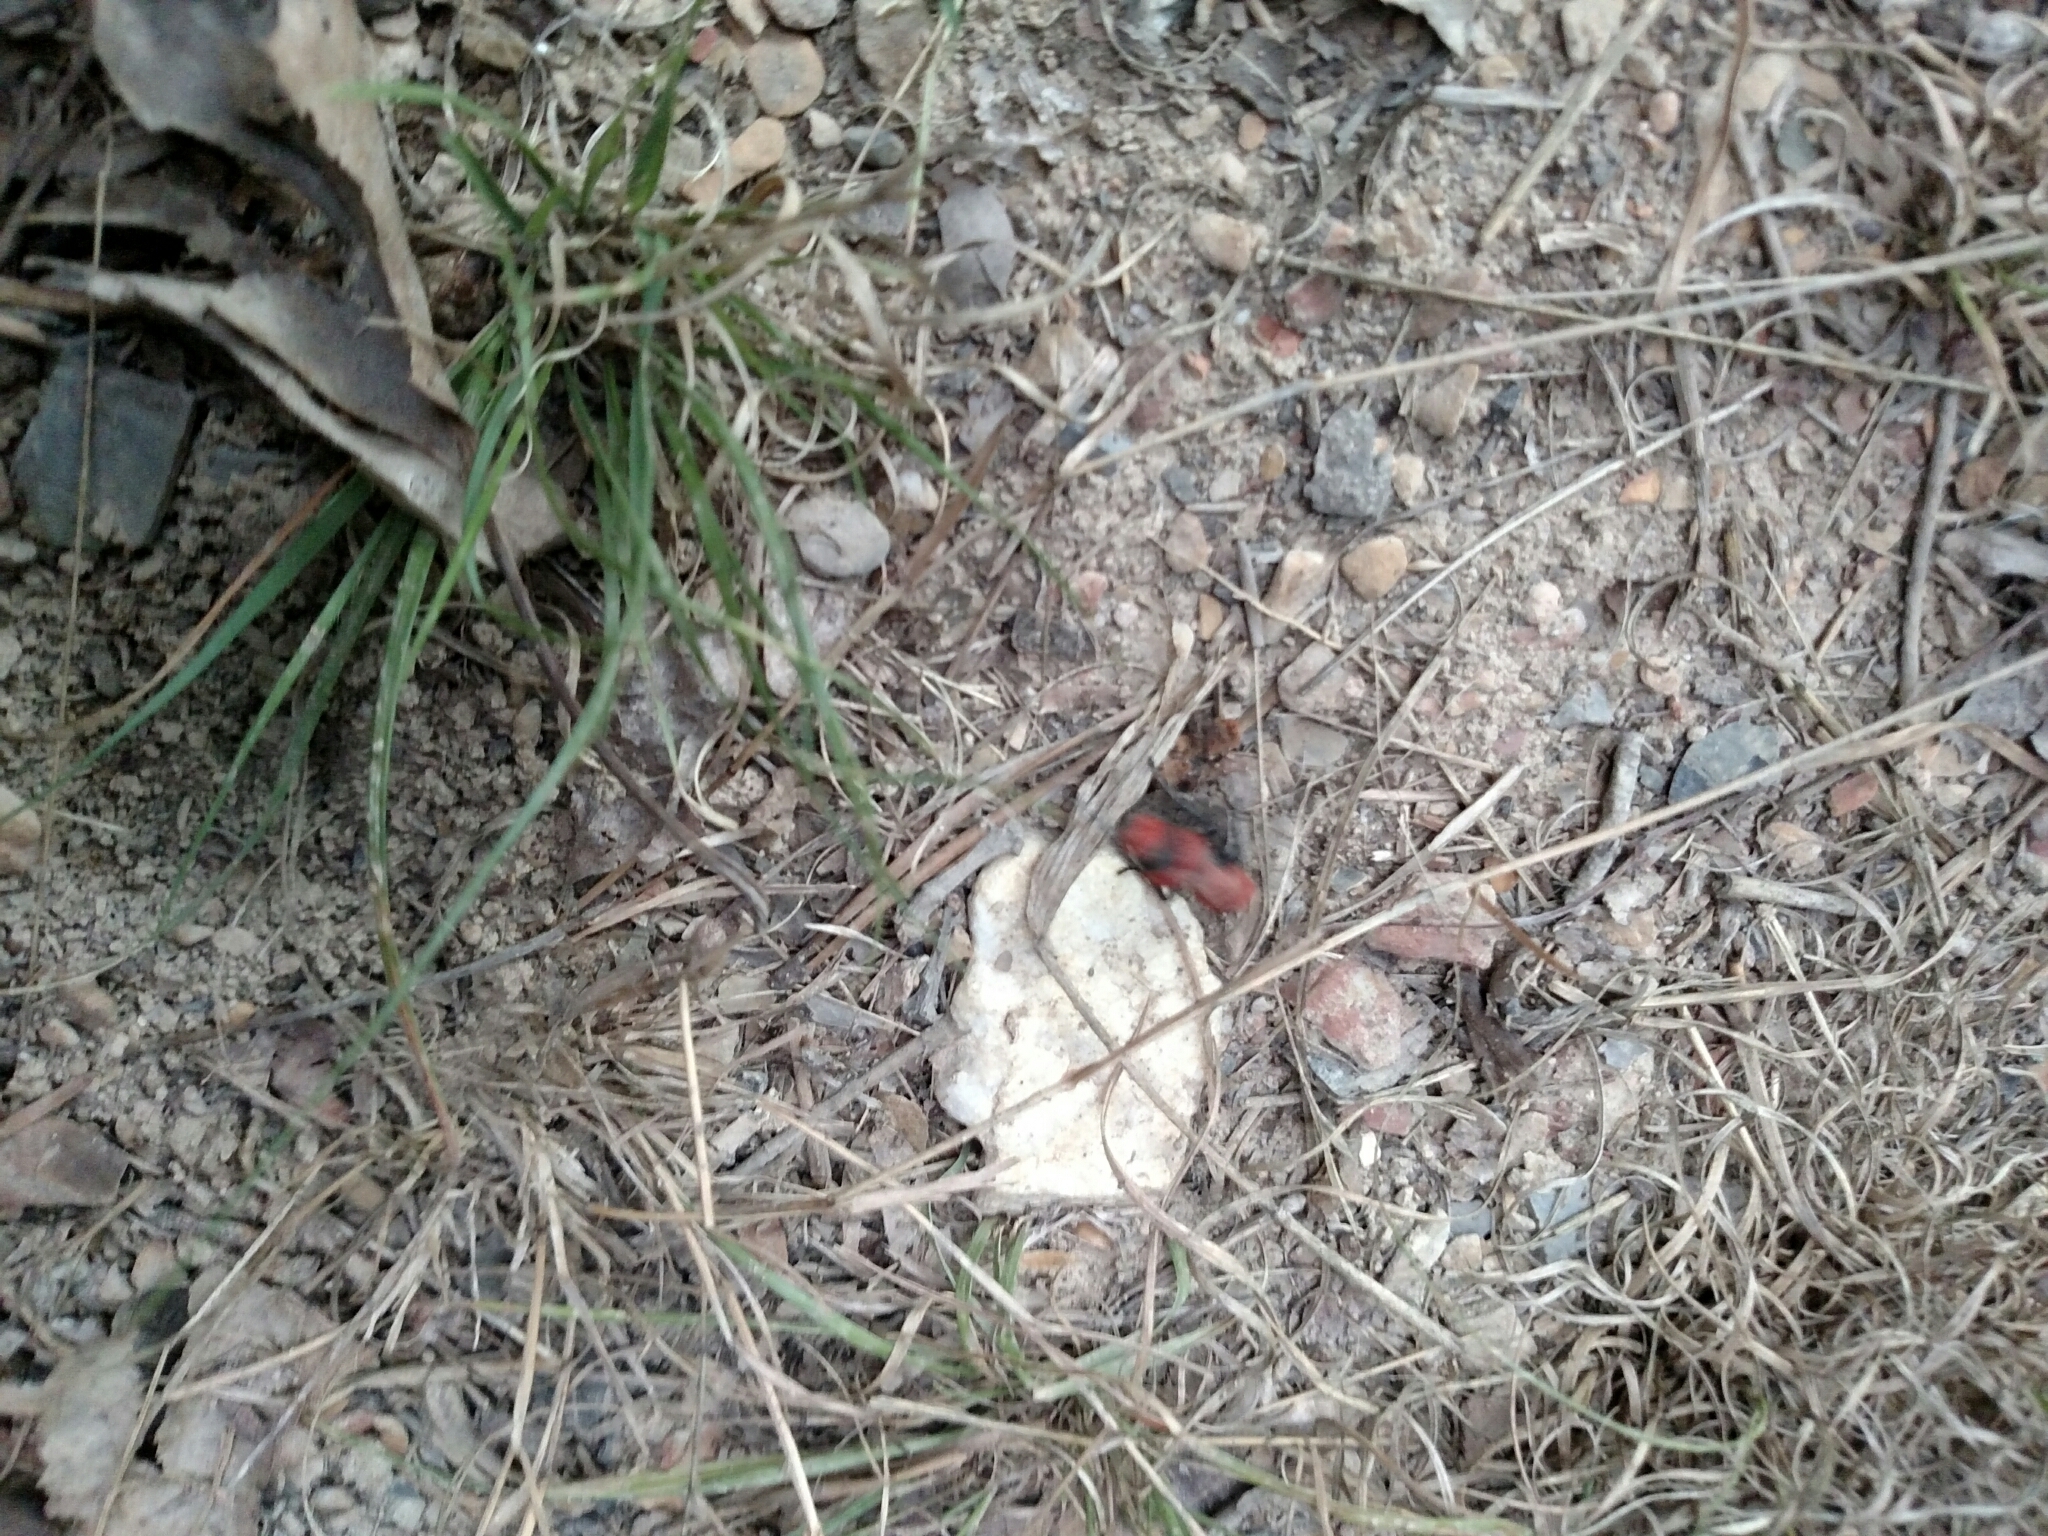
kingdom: Animalia
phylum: Arthropoda
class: Insecta
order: Hymenoptera
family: Mutillidae
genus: Dasymutilla
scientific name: Dasymutilla occidentalis
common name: Common eastern velvet ant
